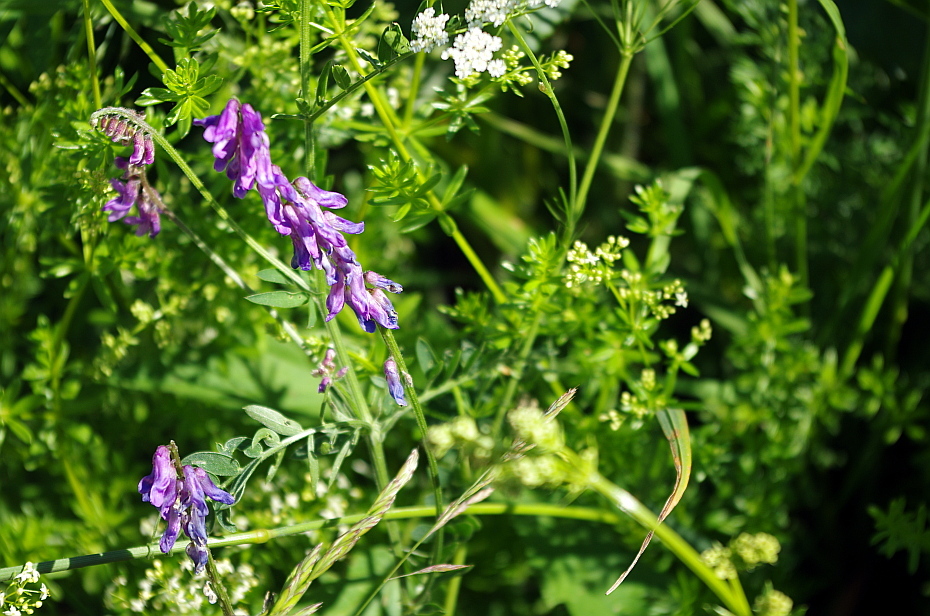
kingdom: Plantae
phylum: Tracheophyta
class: Magnoliopsida
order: Fabales
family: Fabaceae
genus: Vicia
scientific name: Vicia cracca
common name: Bird vetch
